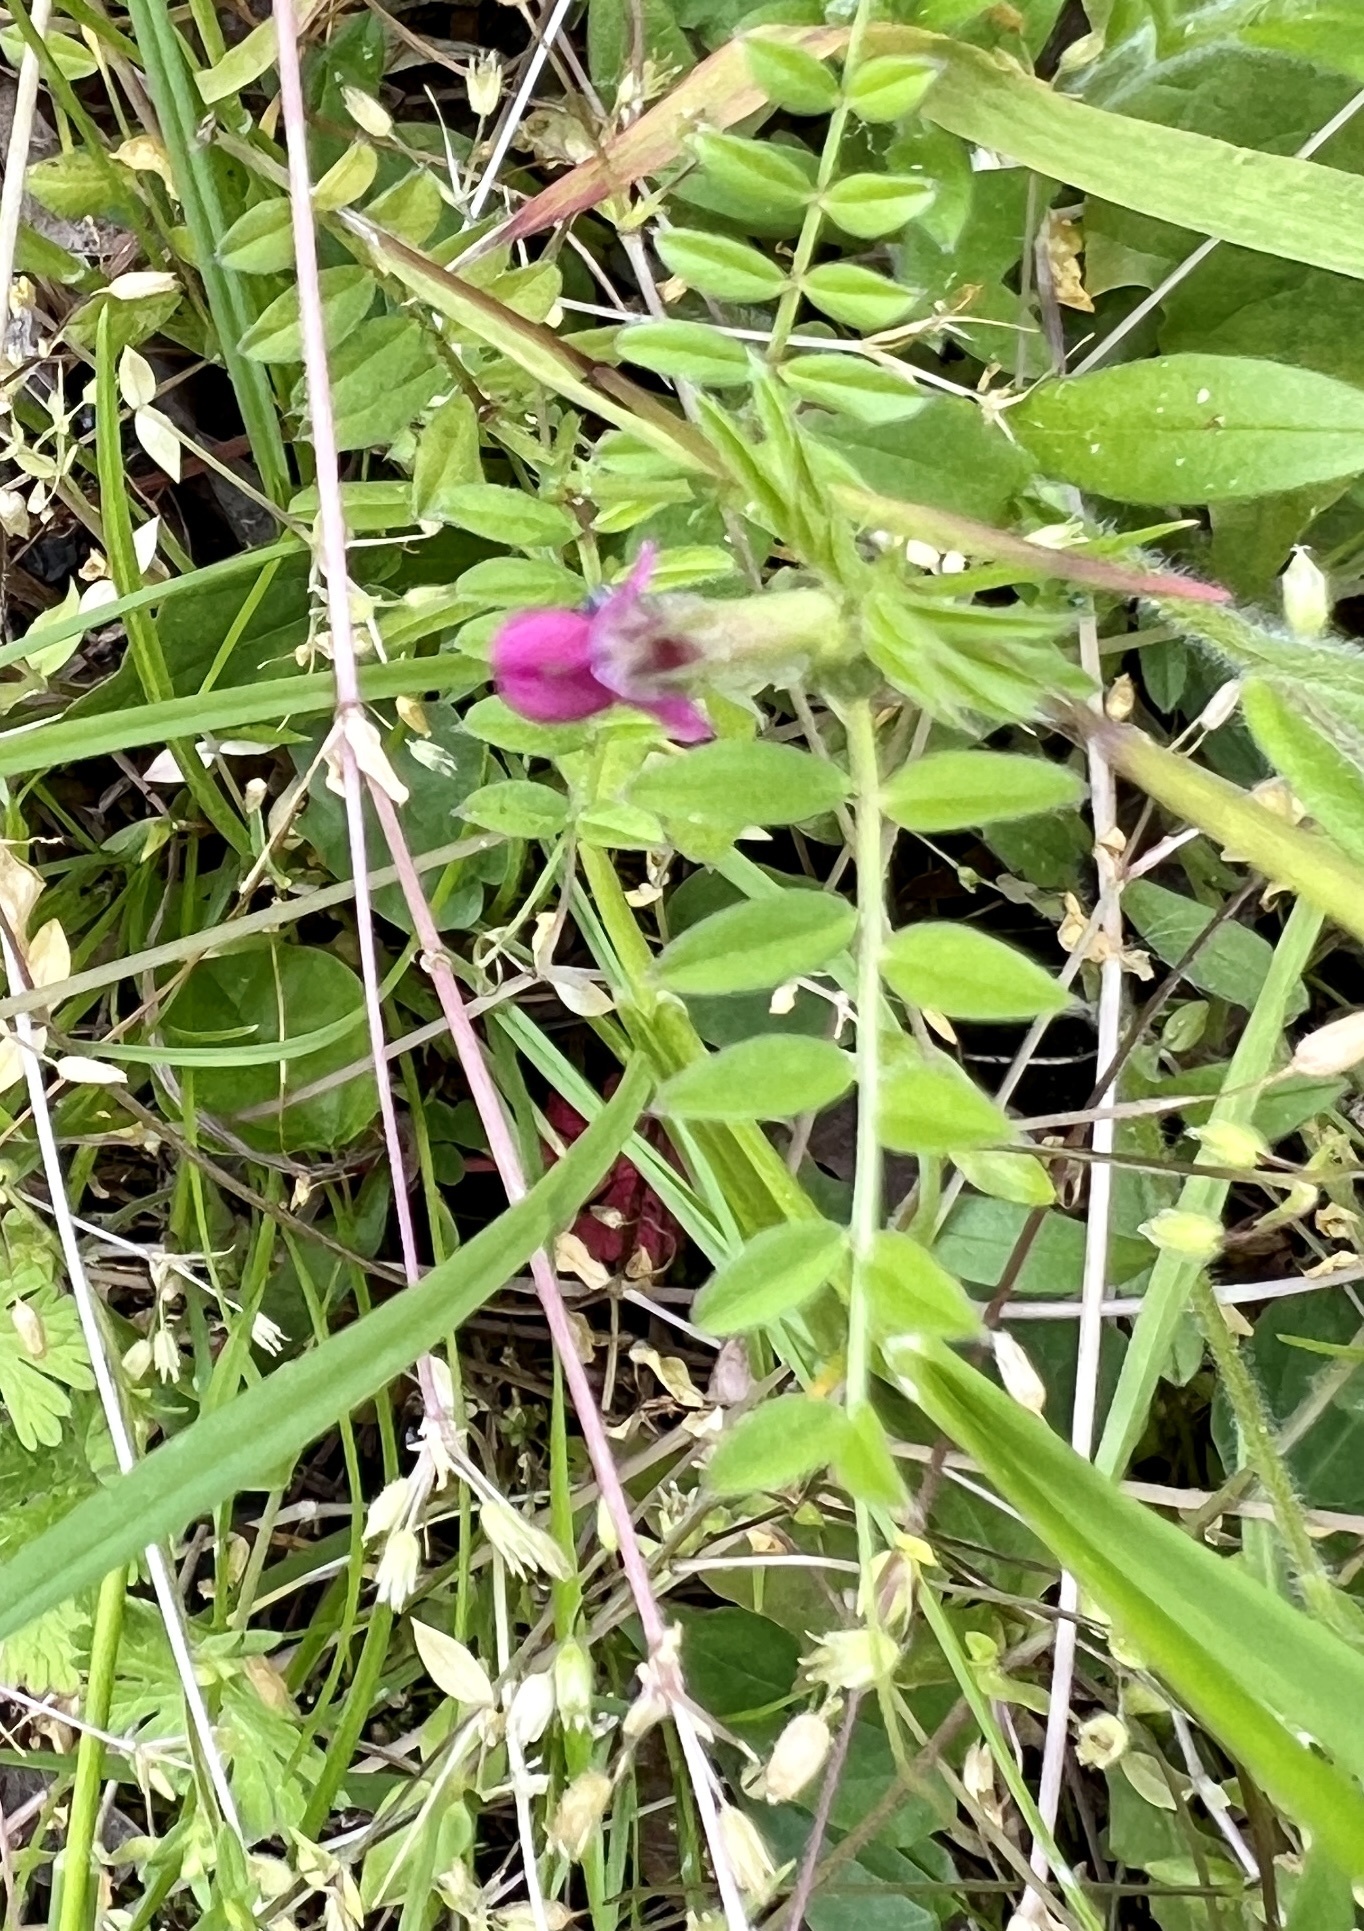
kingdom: Plantae
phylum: Tracheophyta
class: Magnoliopsida
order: Fabales
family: Fabaceae
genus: Vicia
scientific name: Vicia sativa
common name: Garden vetch
